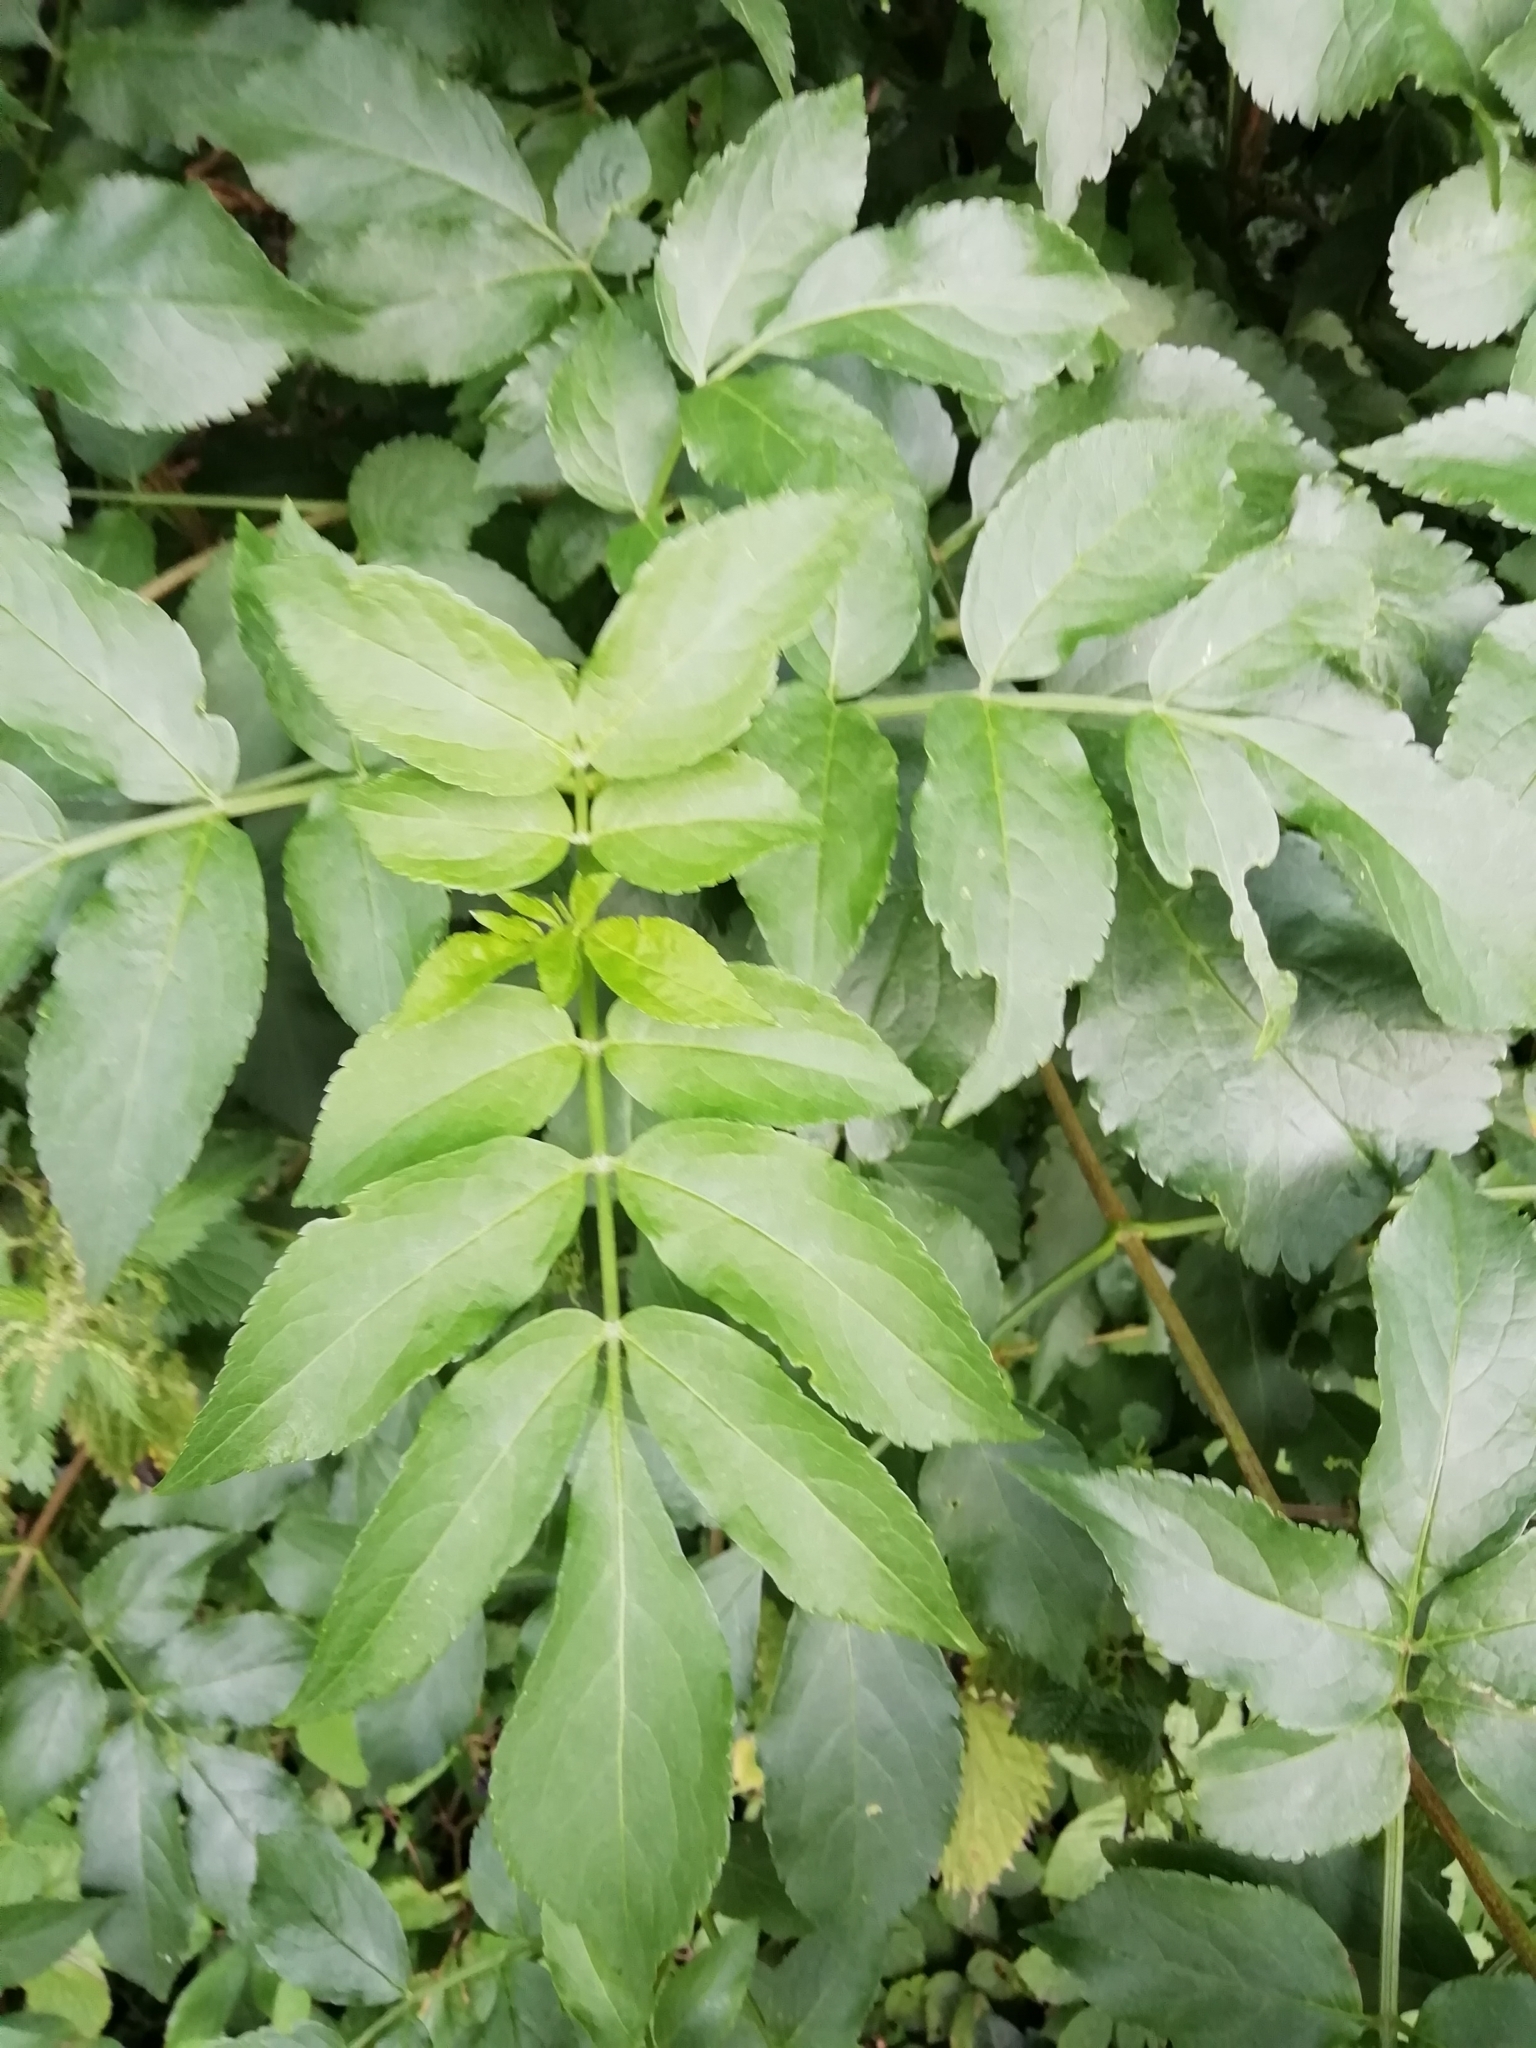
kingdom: Plantae
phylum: Tracheophyta
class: Magnoliopsida
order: Dipsacales
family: Viburnaceae
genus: Sambucus
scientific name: Sambucus nigra
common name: Elder
